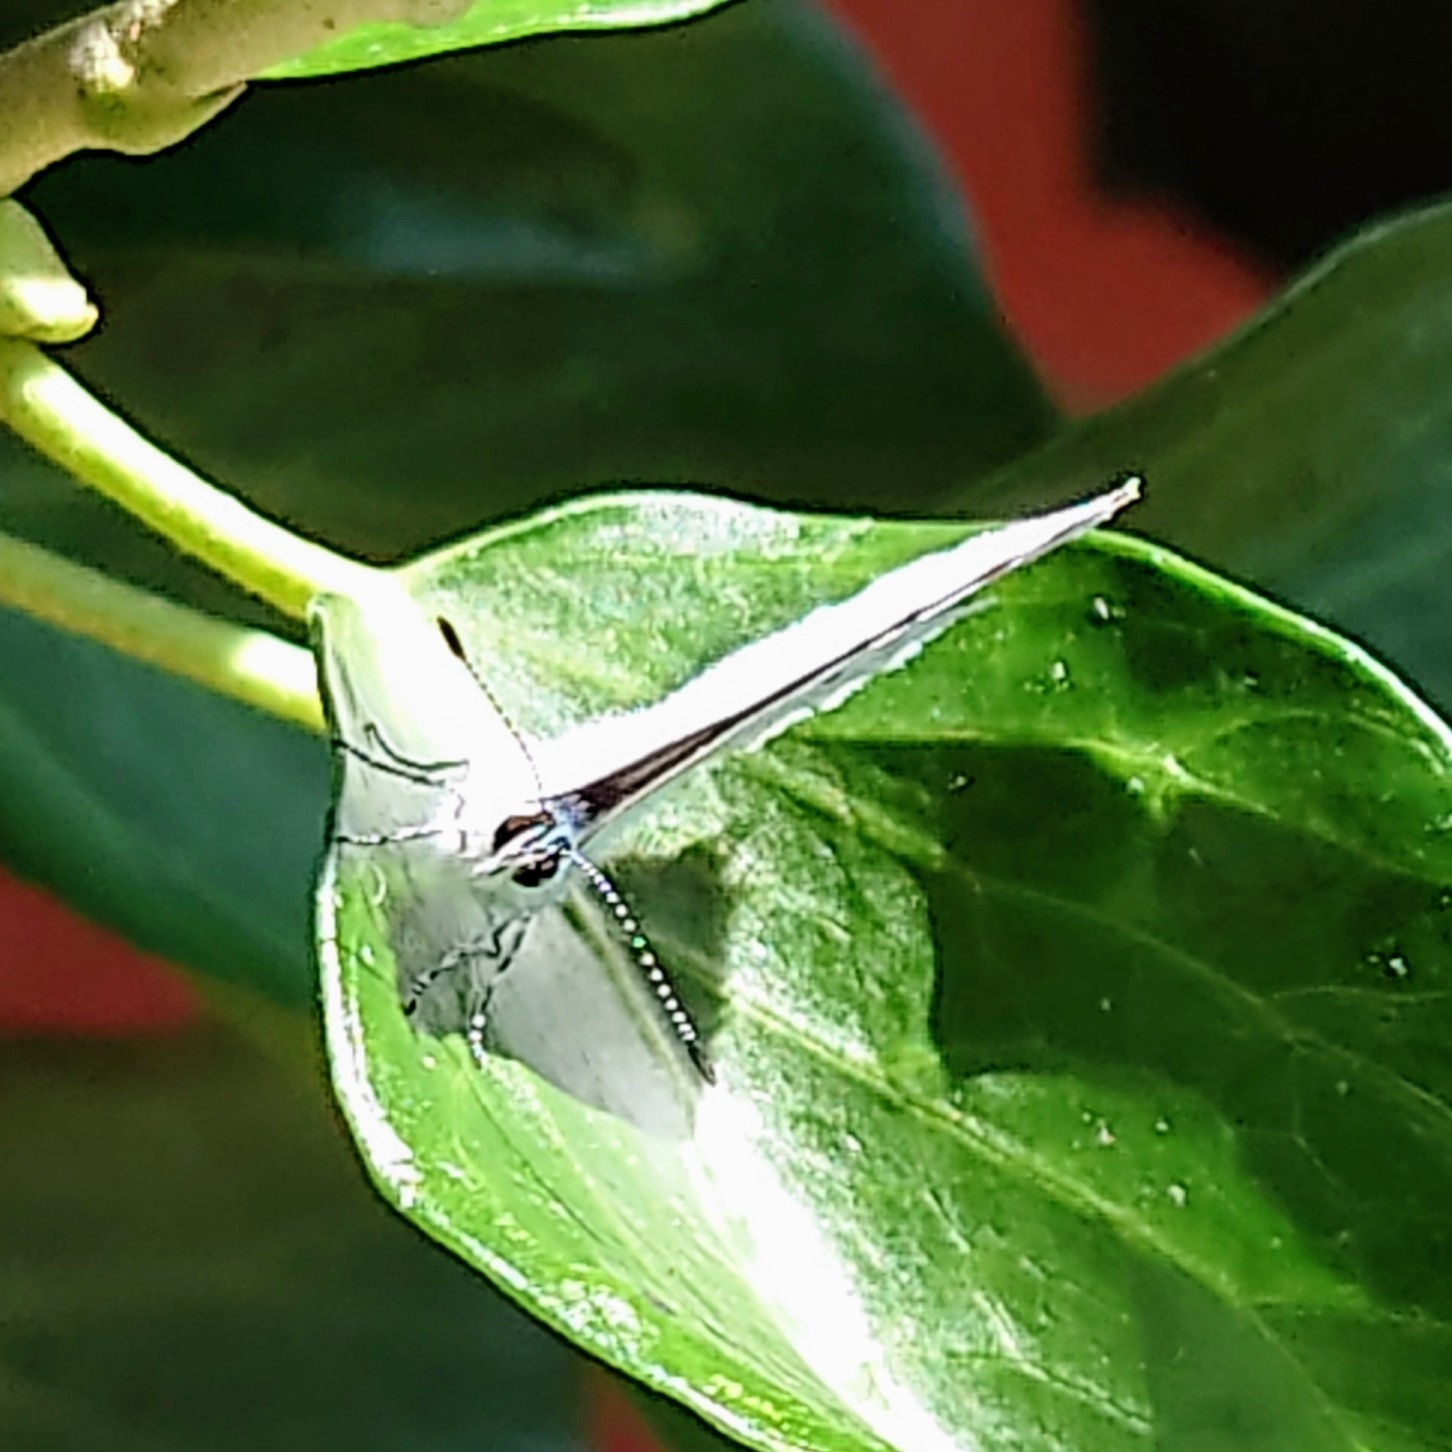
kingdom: Animalia
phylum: Arthropoda
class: Insecta
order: Lepidoptera
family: Lycaenidae
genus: Celastrina
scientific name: Celastrina argiolus
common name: Holly blue
